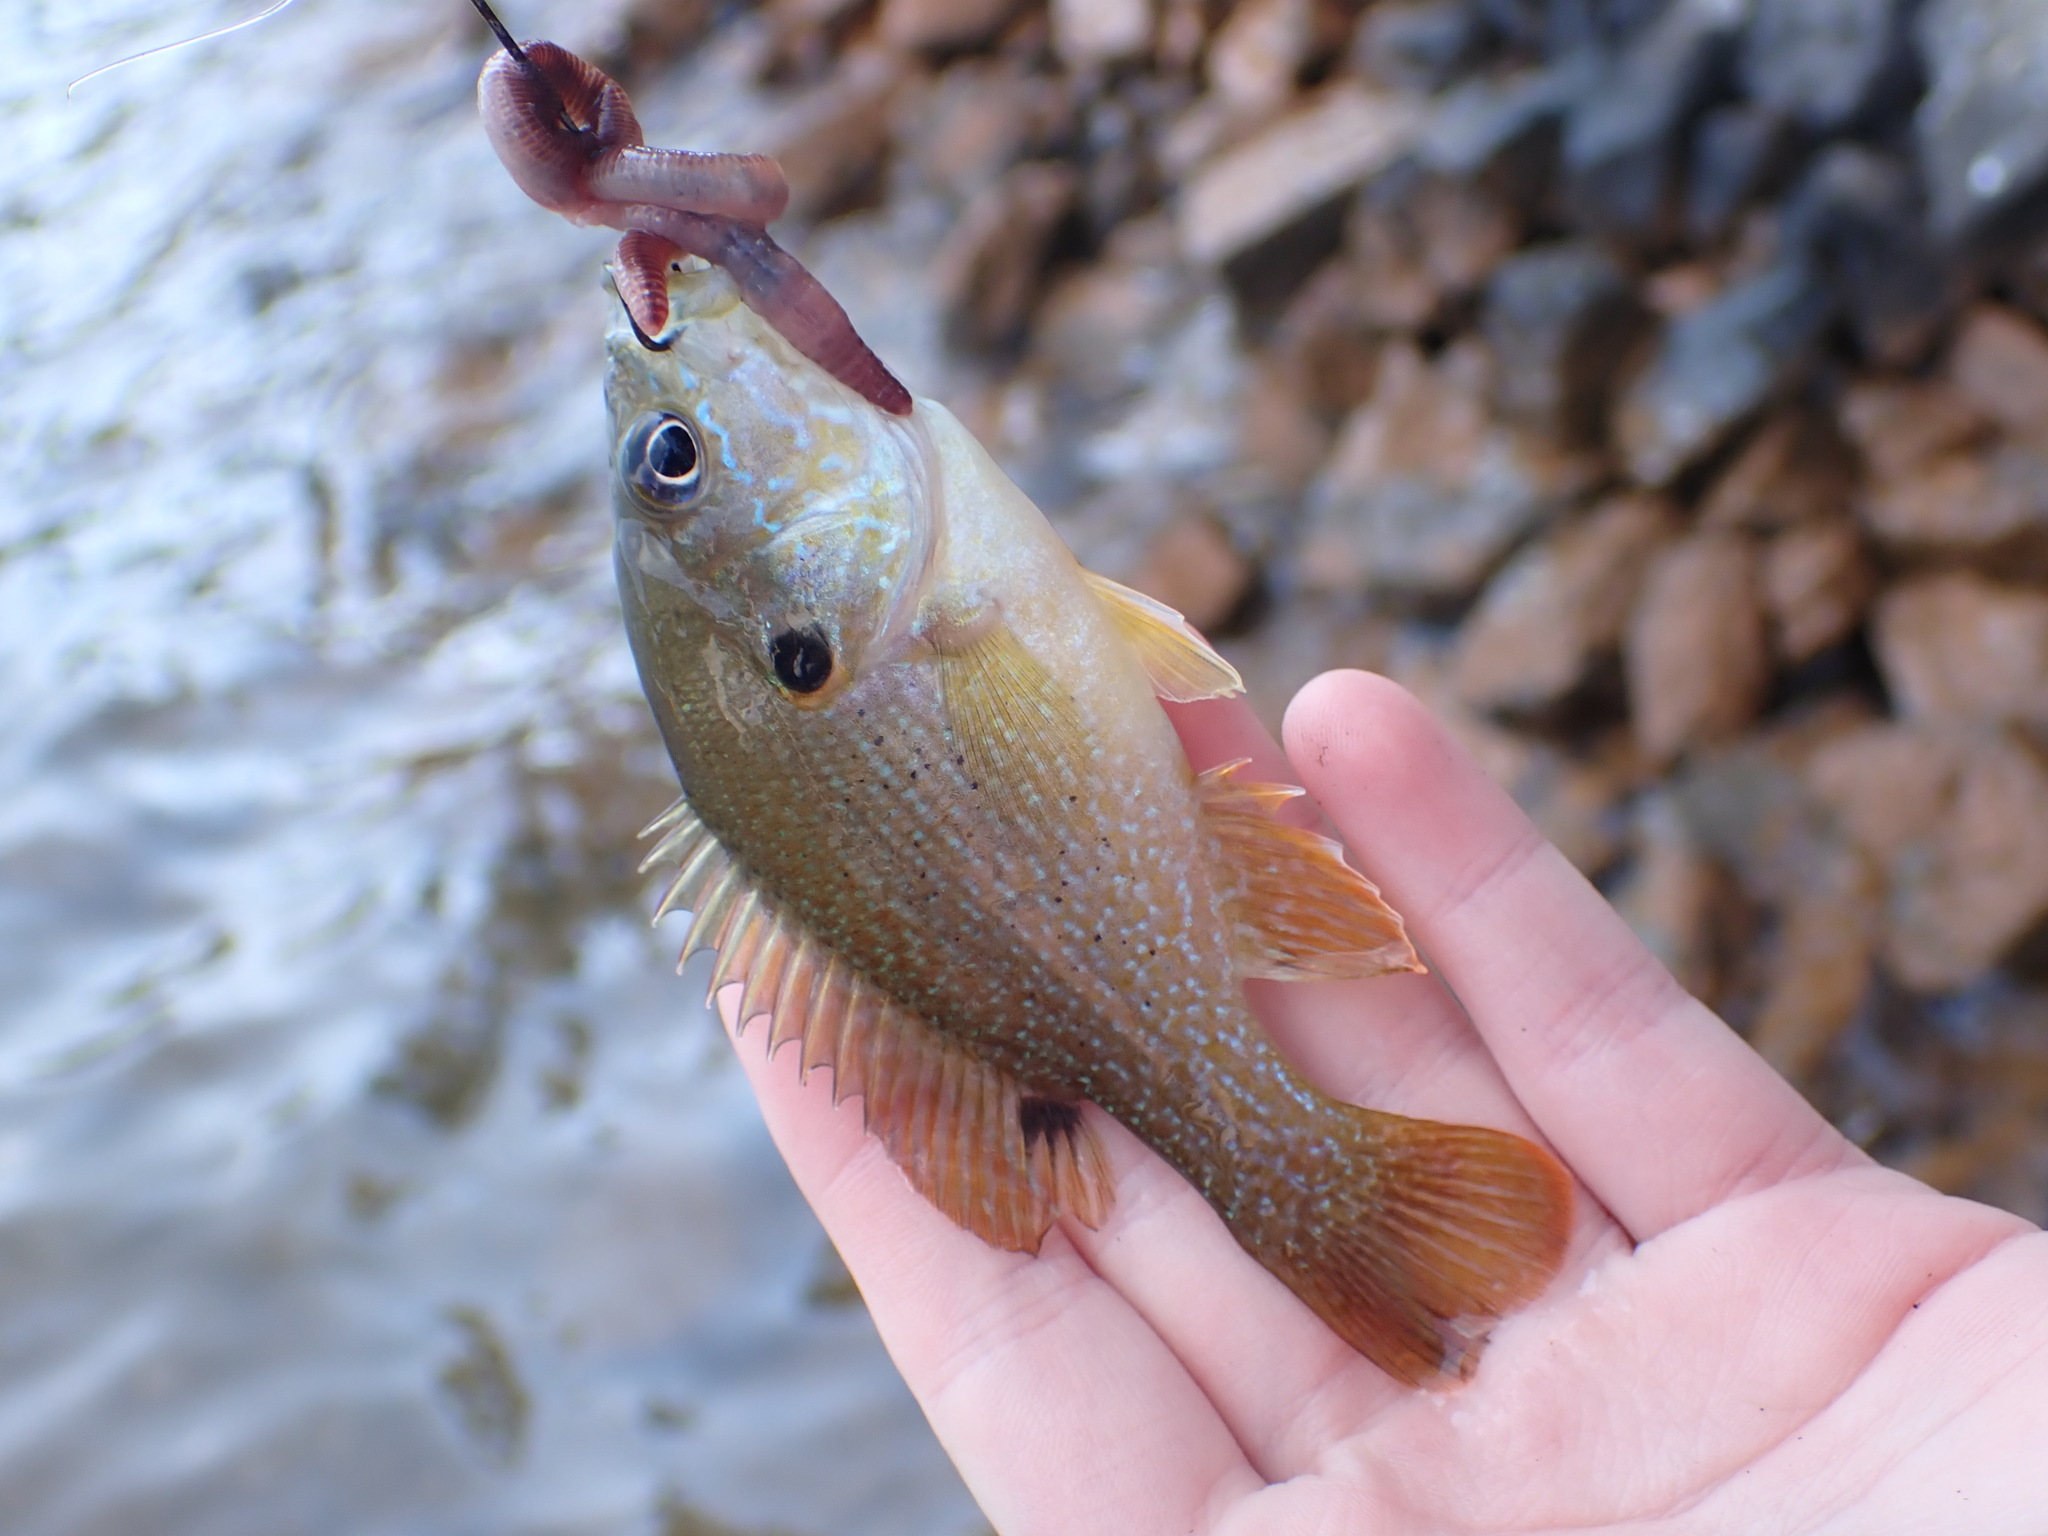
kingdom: Animalia
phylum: Chordata
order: Perciformes
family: Centrarchidae
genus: Lepomis
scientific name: Lepomis cyanellus
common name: Green sunfish
